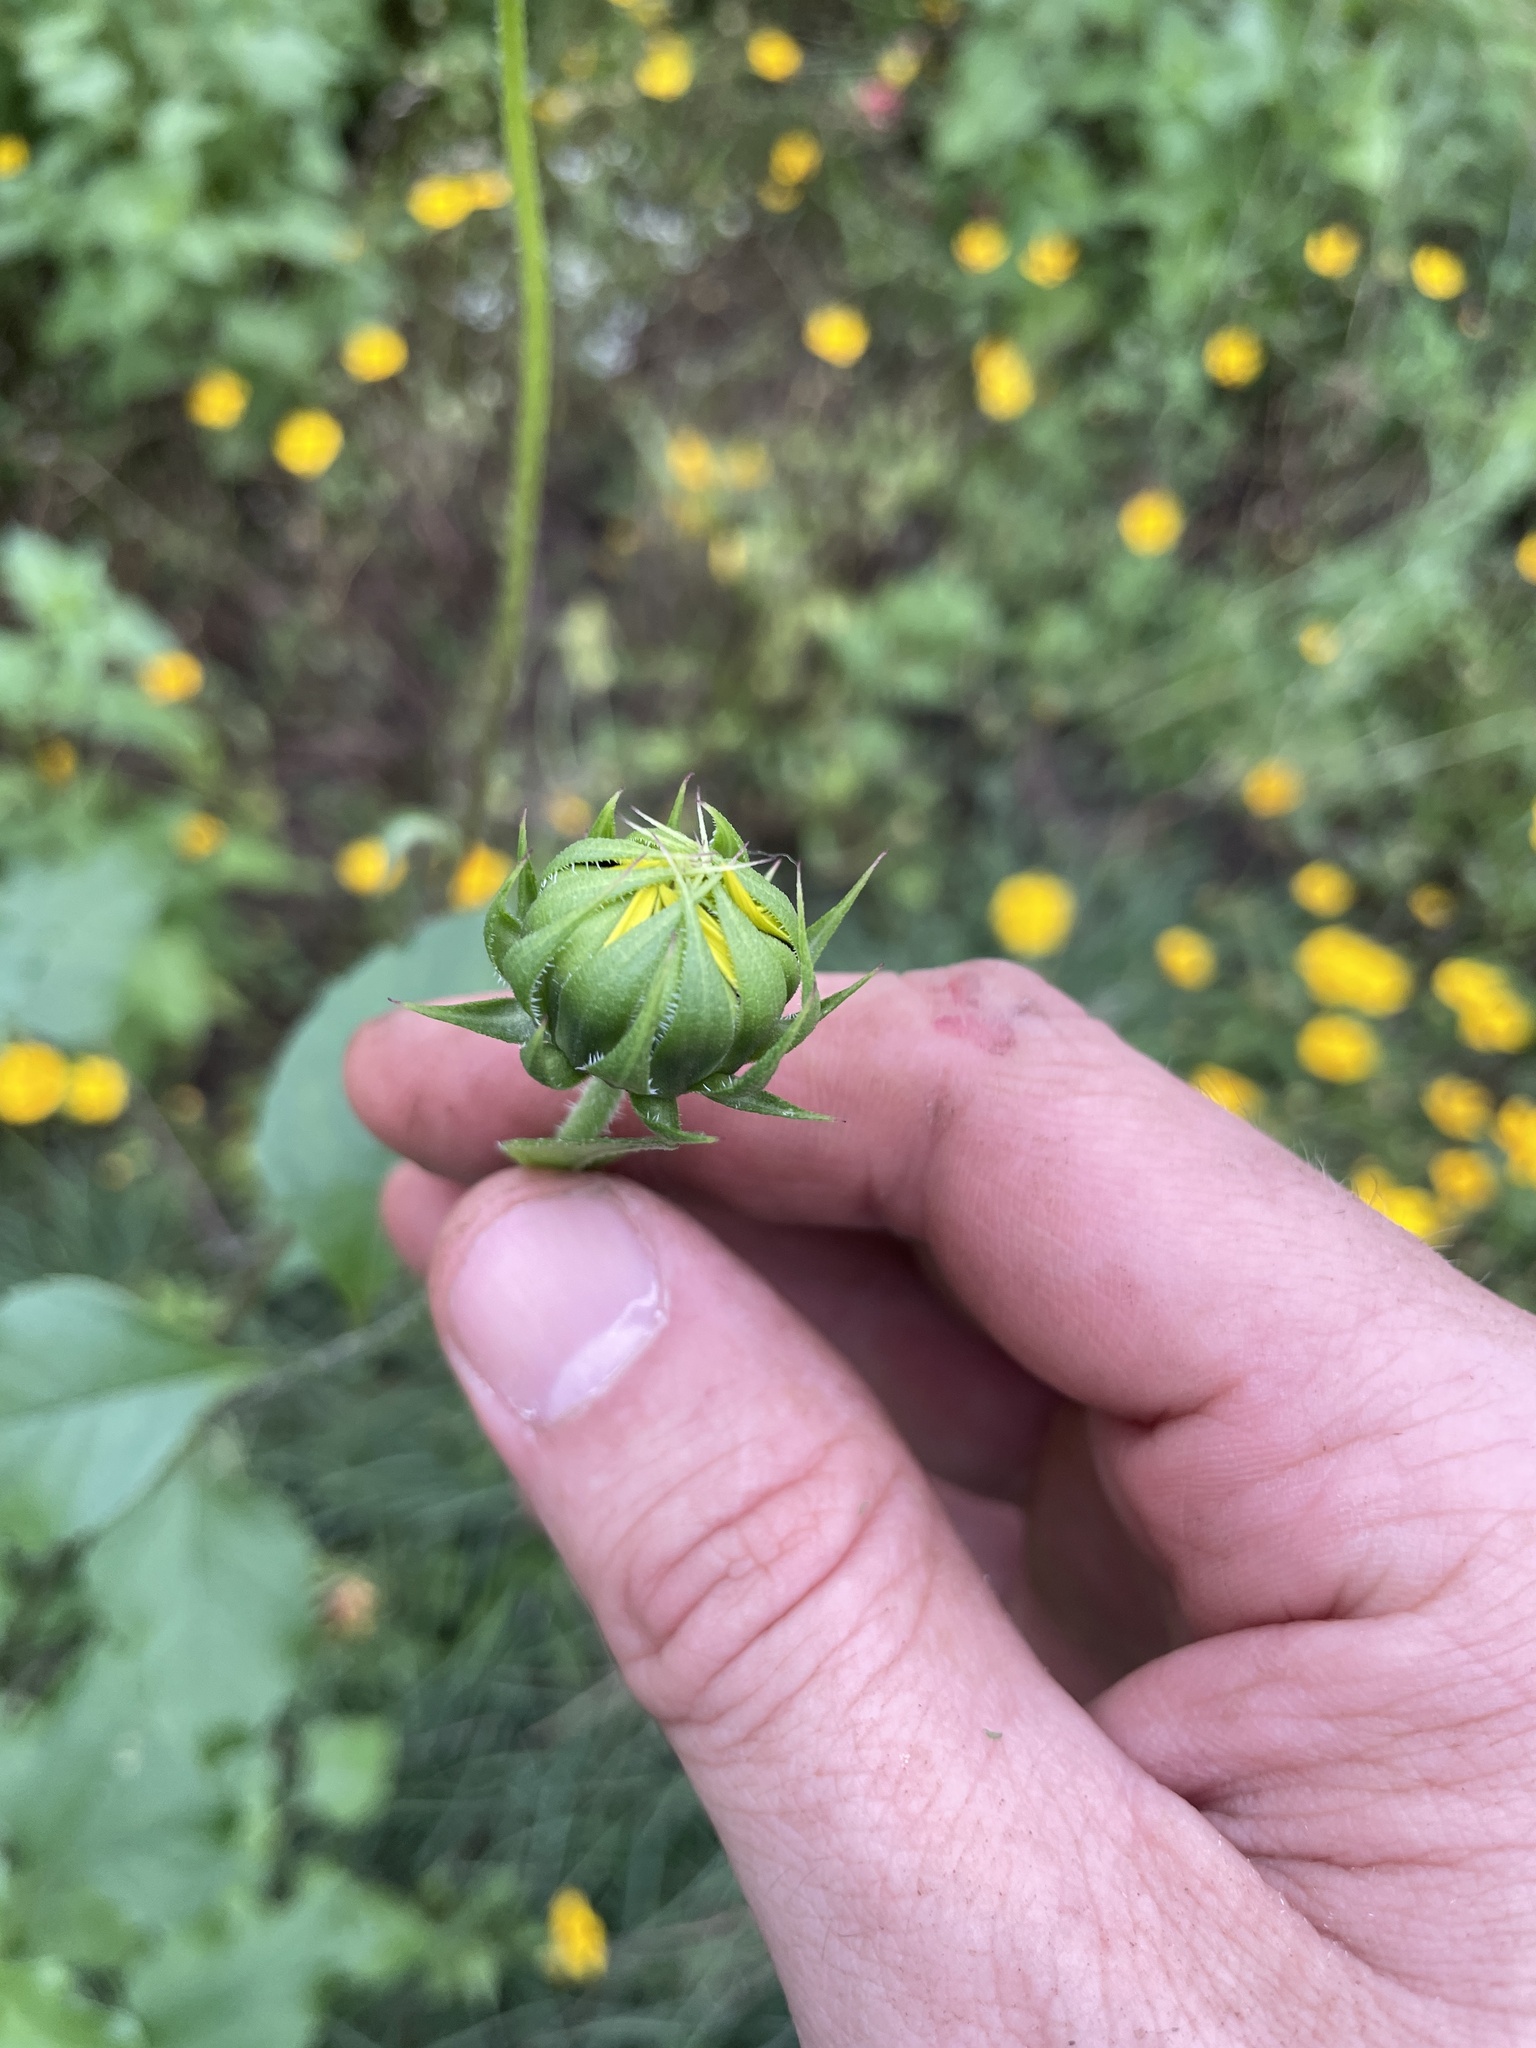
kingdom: Plantae
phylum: Tracheophyta
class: Magnoliopsida
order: Asterales
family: Asteraceae
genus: Helianthus
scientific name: Helianthus praecox
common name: Texas sunflower
